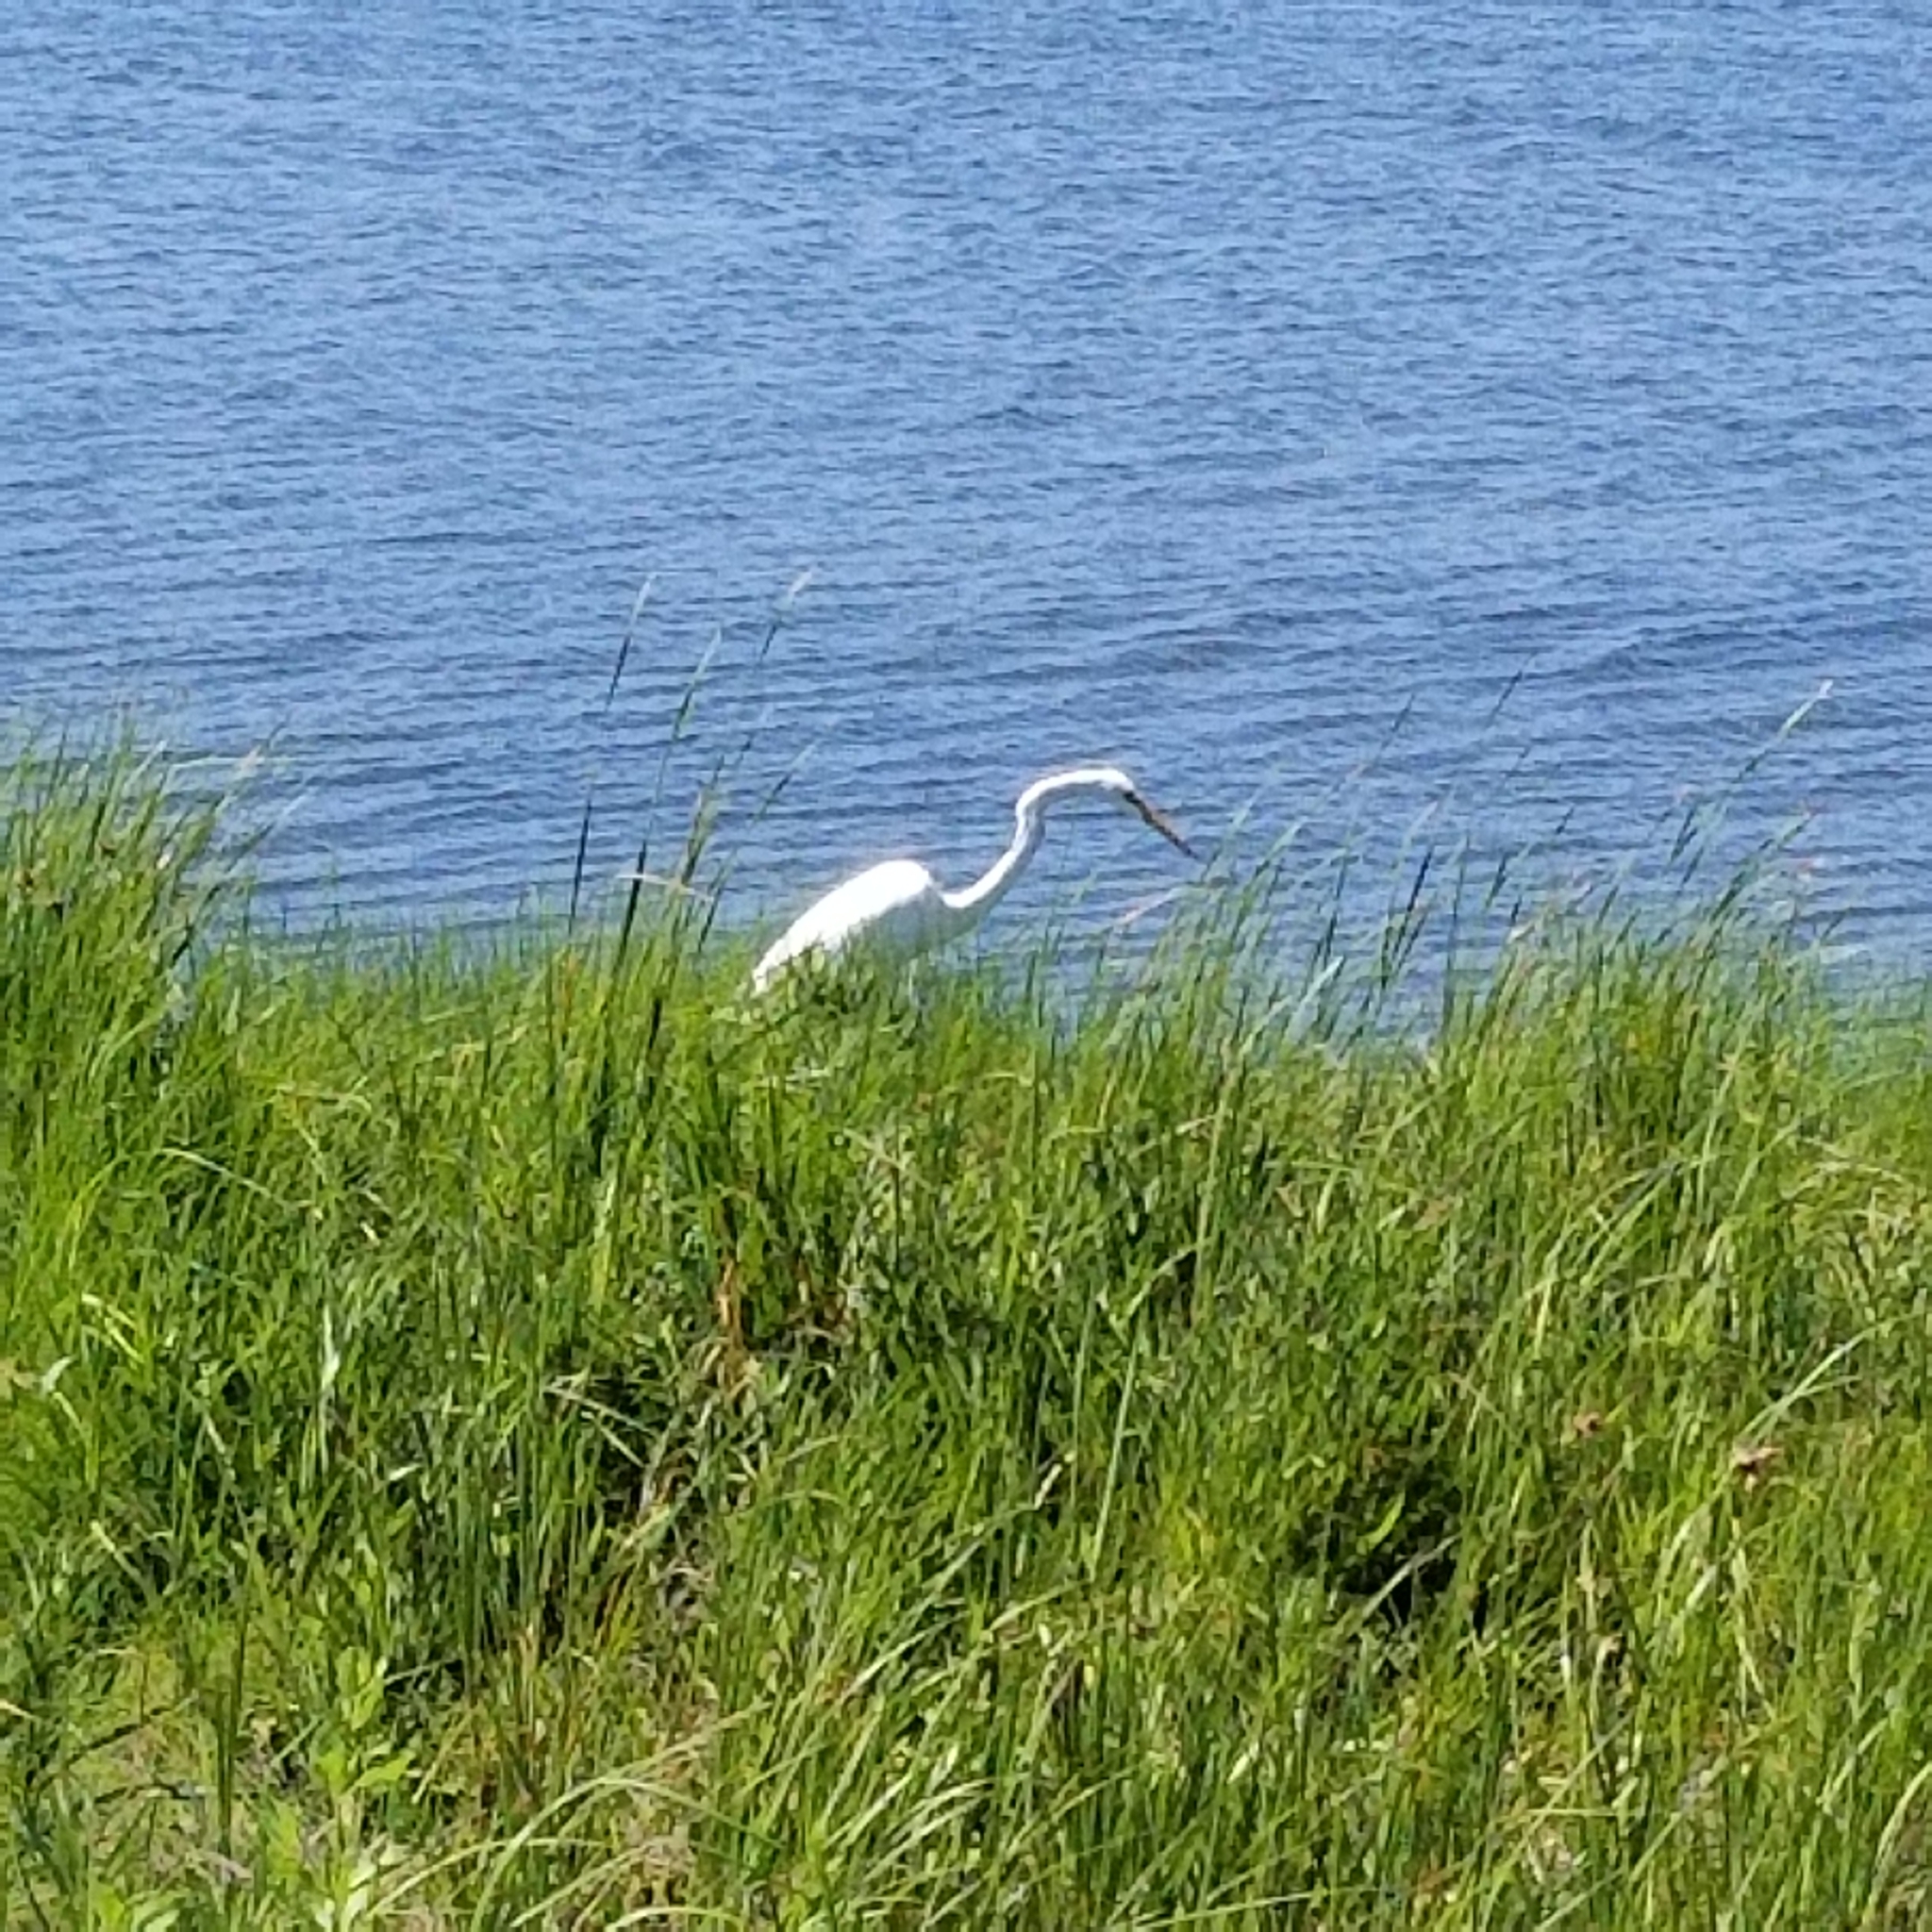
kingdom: Animalia
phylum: Chordata
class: Aves
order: Pelecaniformes
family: Ardeidae
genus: Ardea
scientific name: Ardea alba
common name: Great egret
